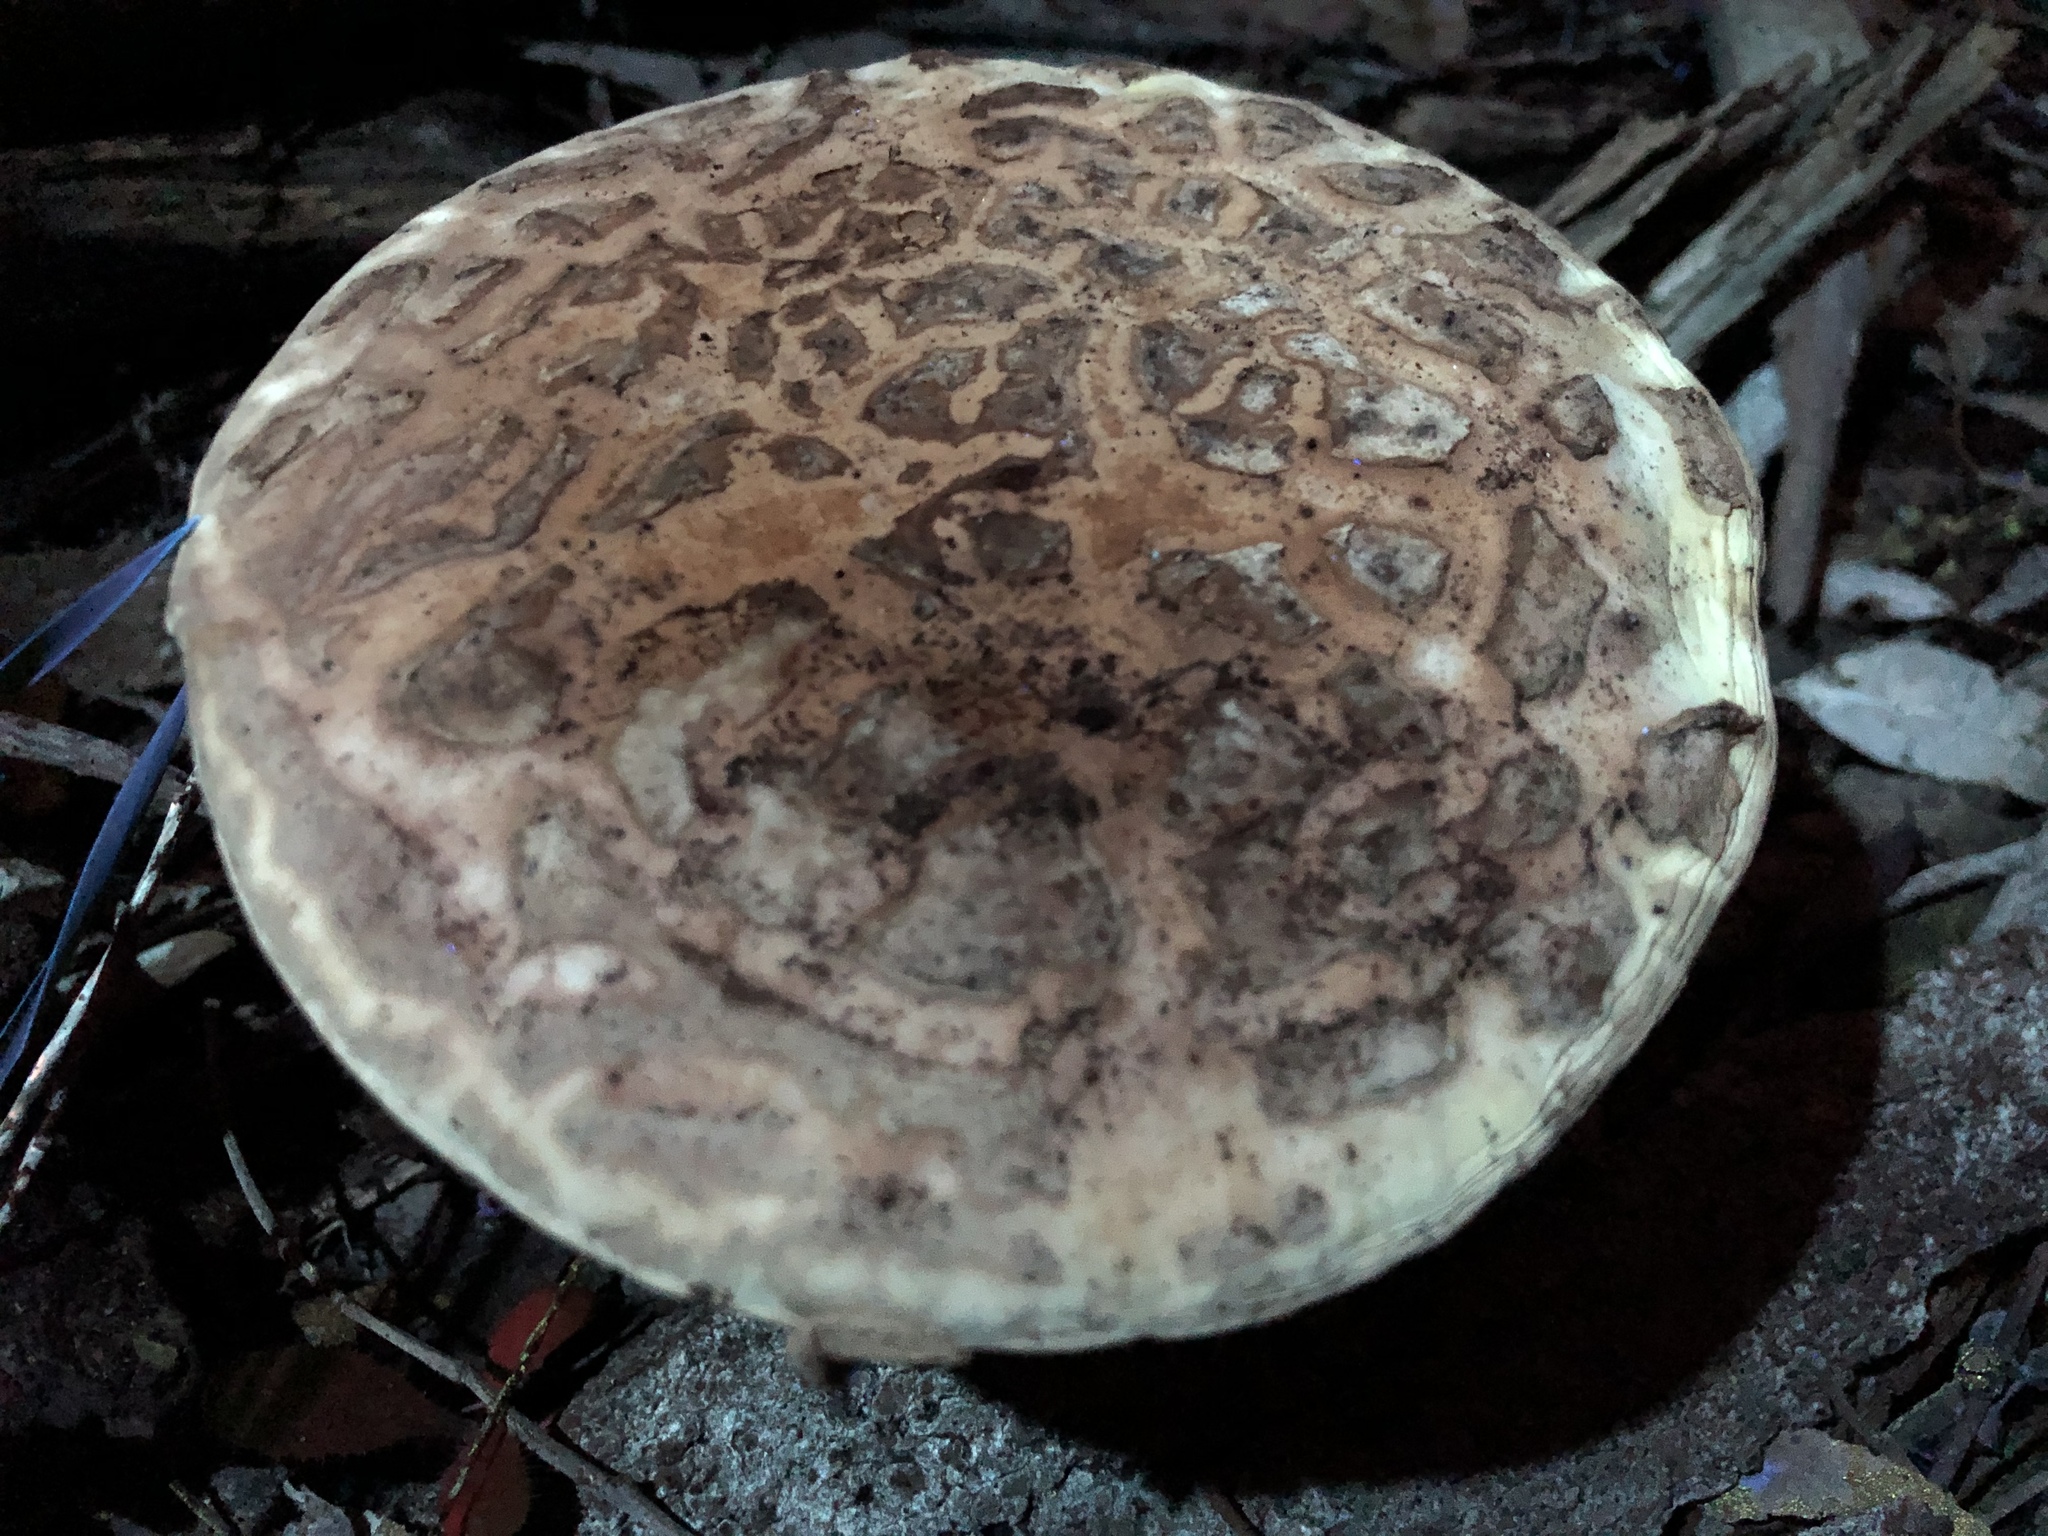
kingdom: Fungi
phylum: Basidiomycota
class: Agaricomycetes
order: Agaricales
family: Amanitaceae
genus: Amanita
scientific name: Amanita ochrophylla
